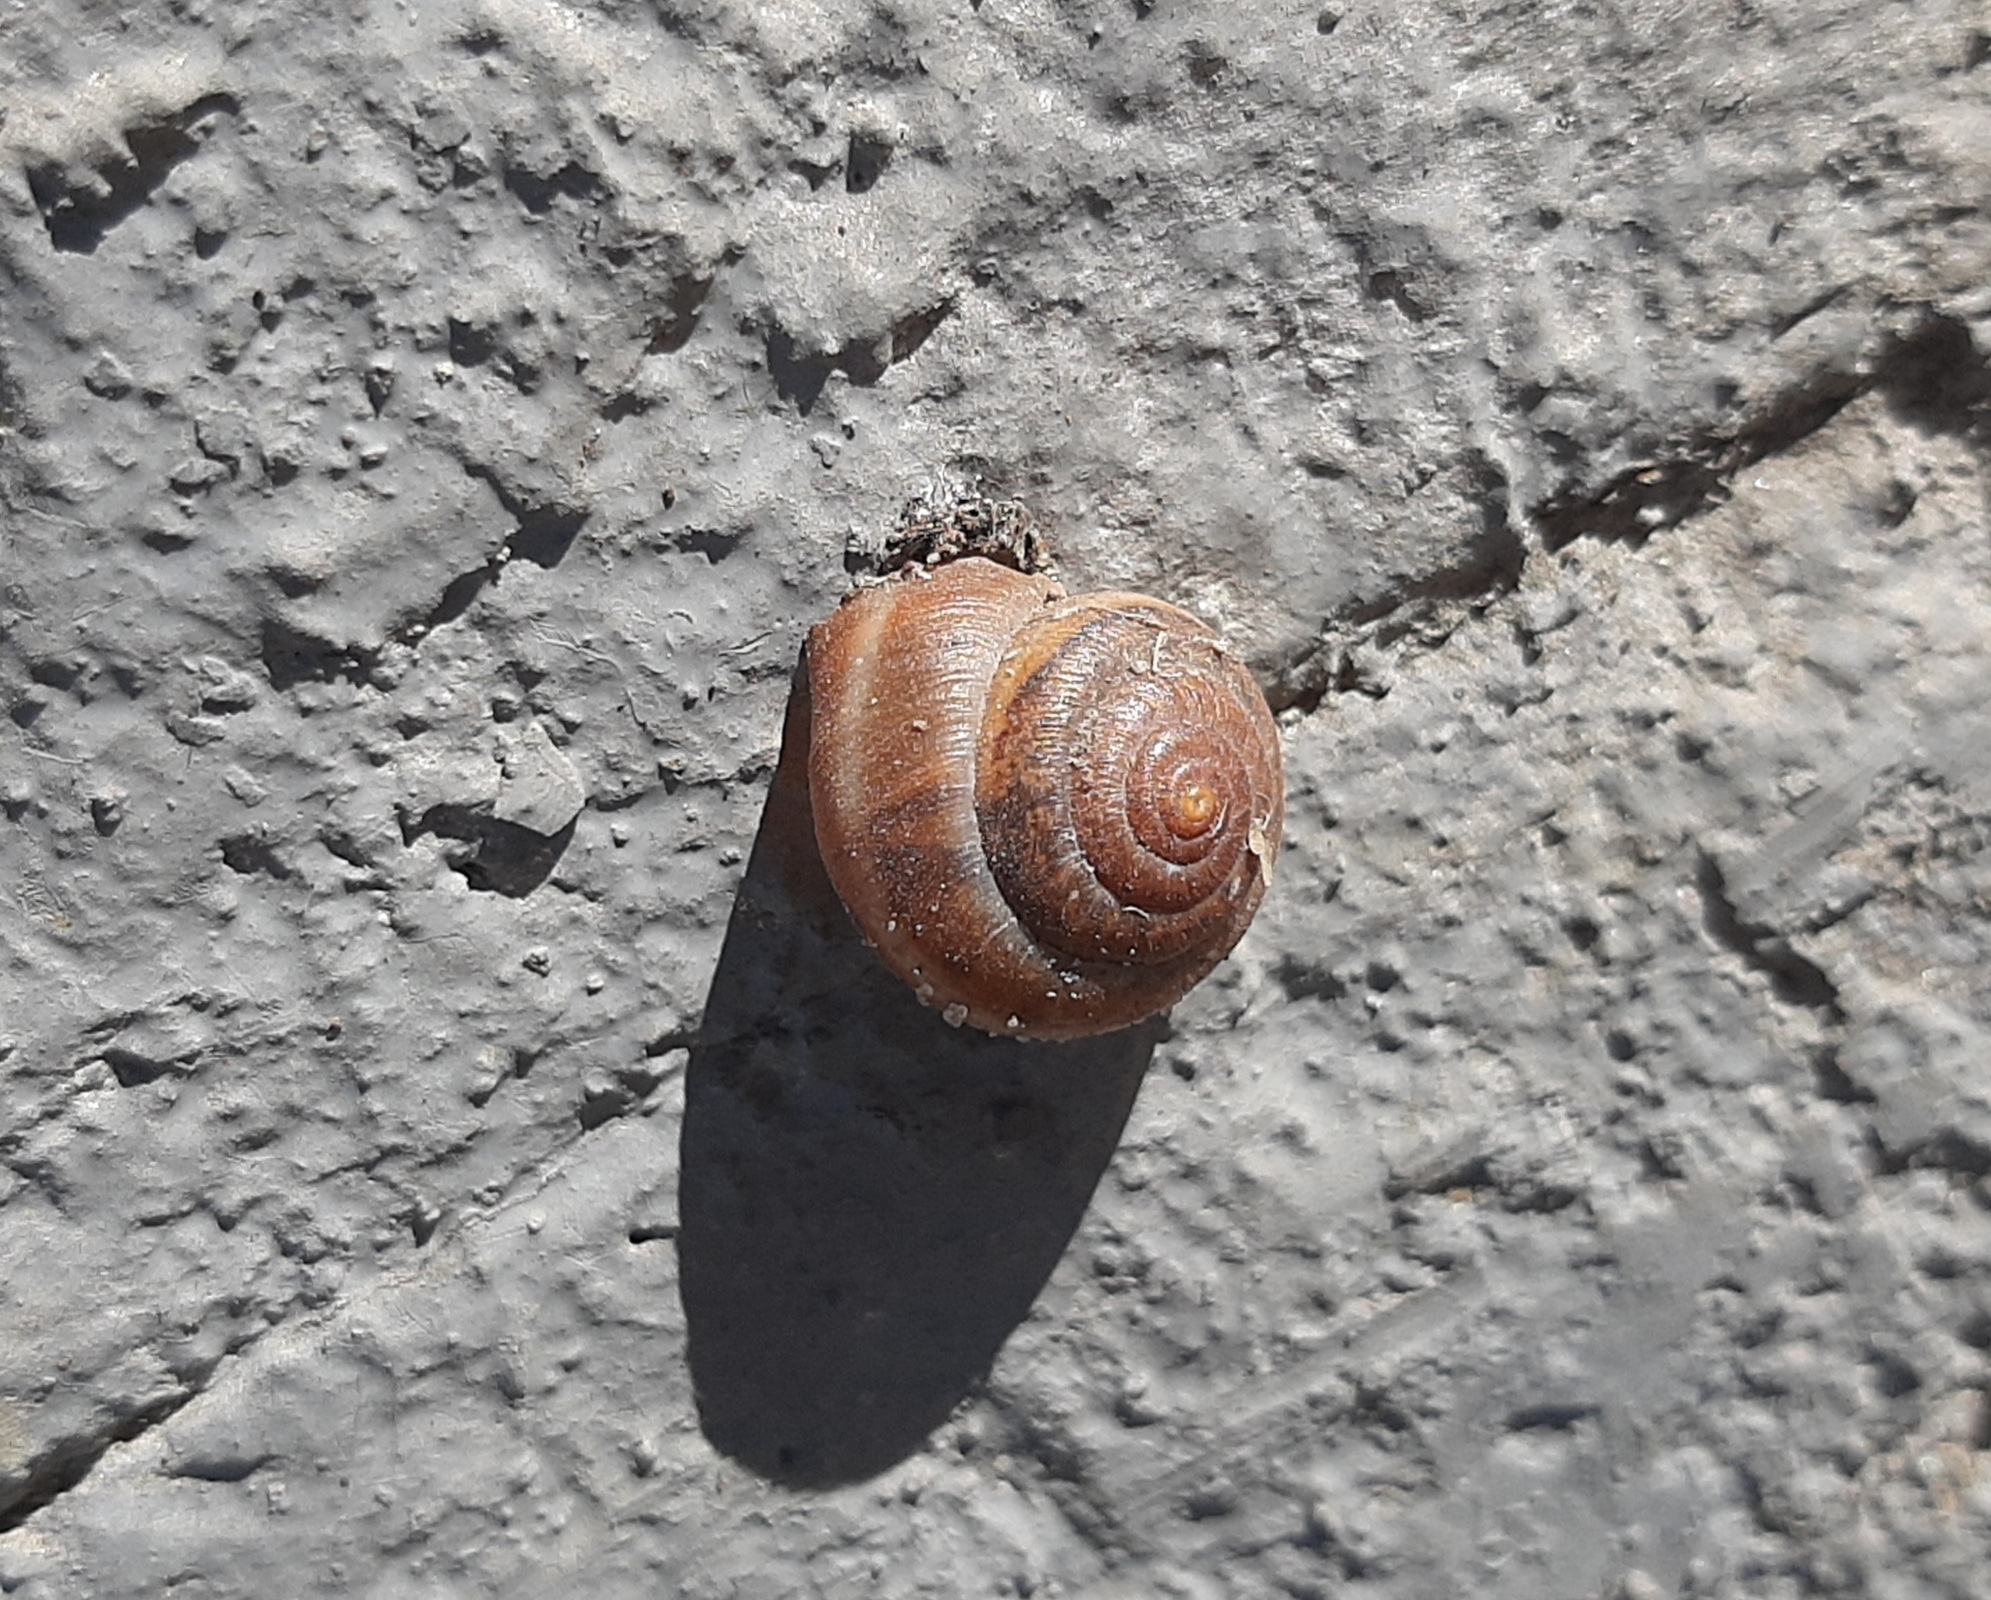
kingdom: Animalia
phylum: Mollusca
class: Gastropoda
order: Stylommatophora
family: Hygromiidae
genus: Euomphalia
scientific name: Euomphalia strigella
